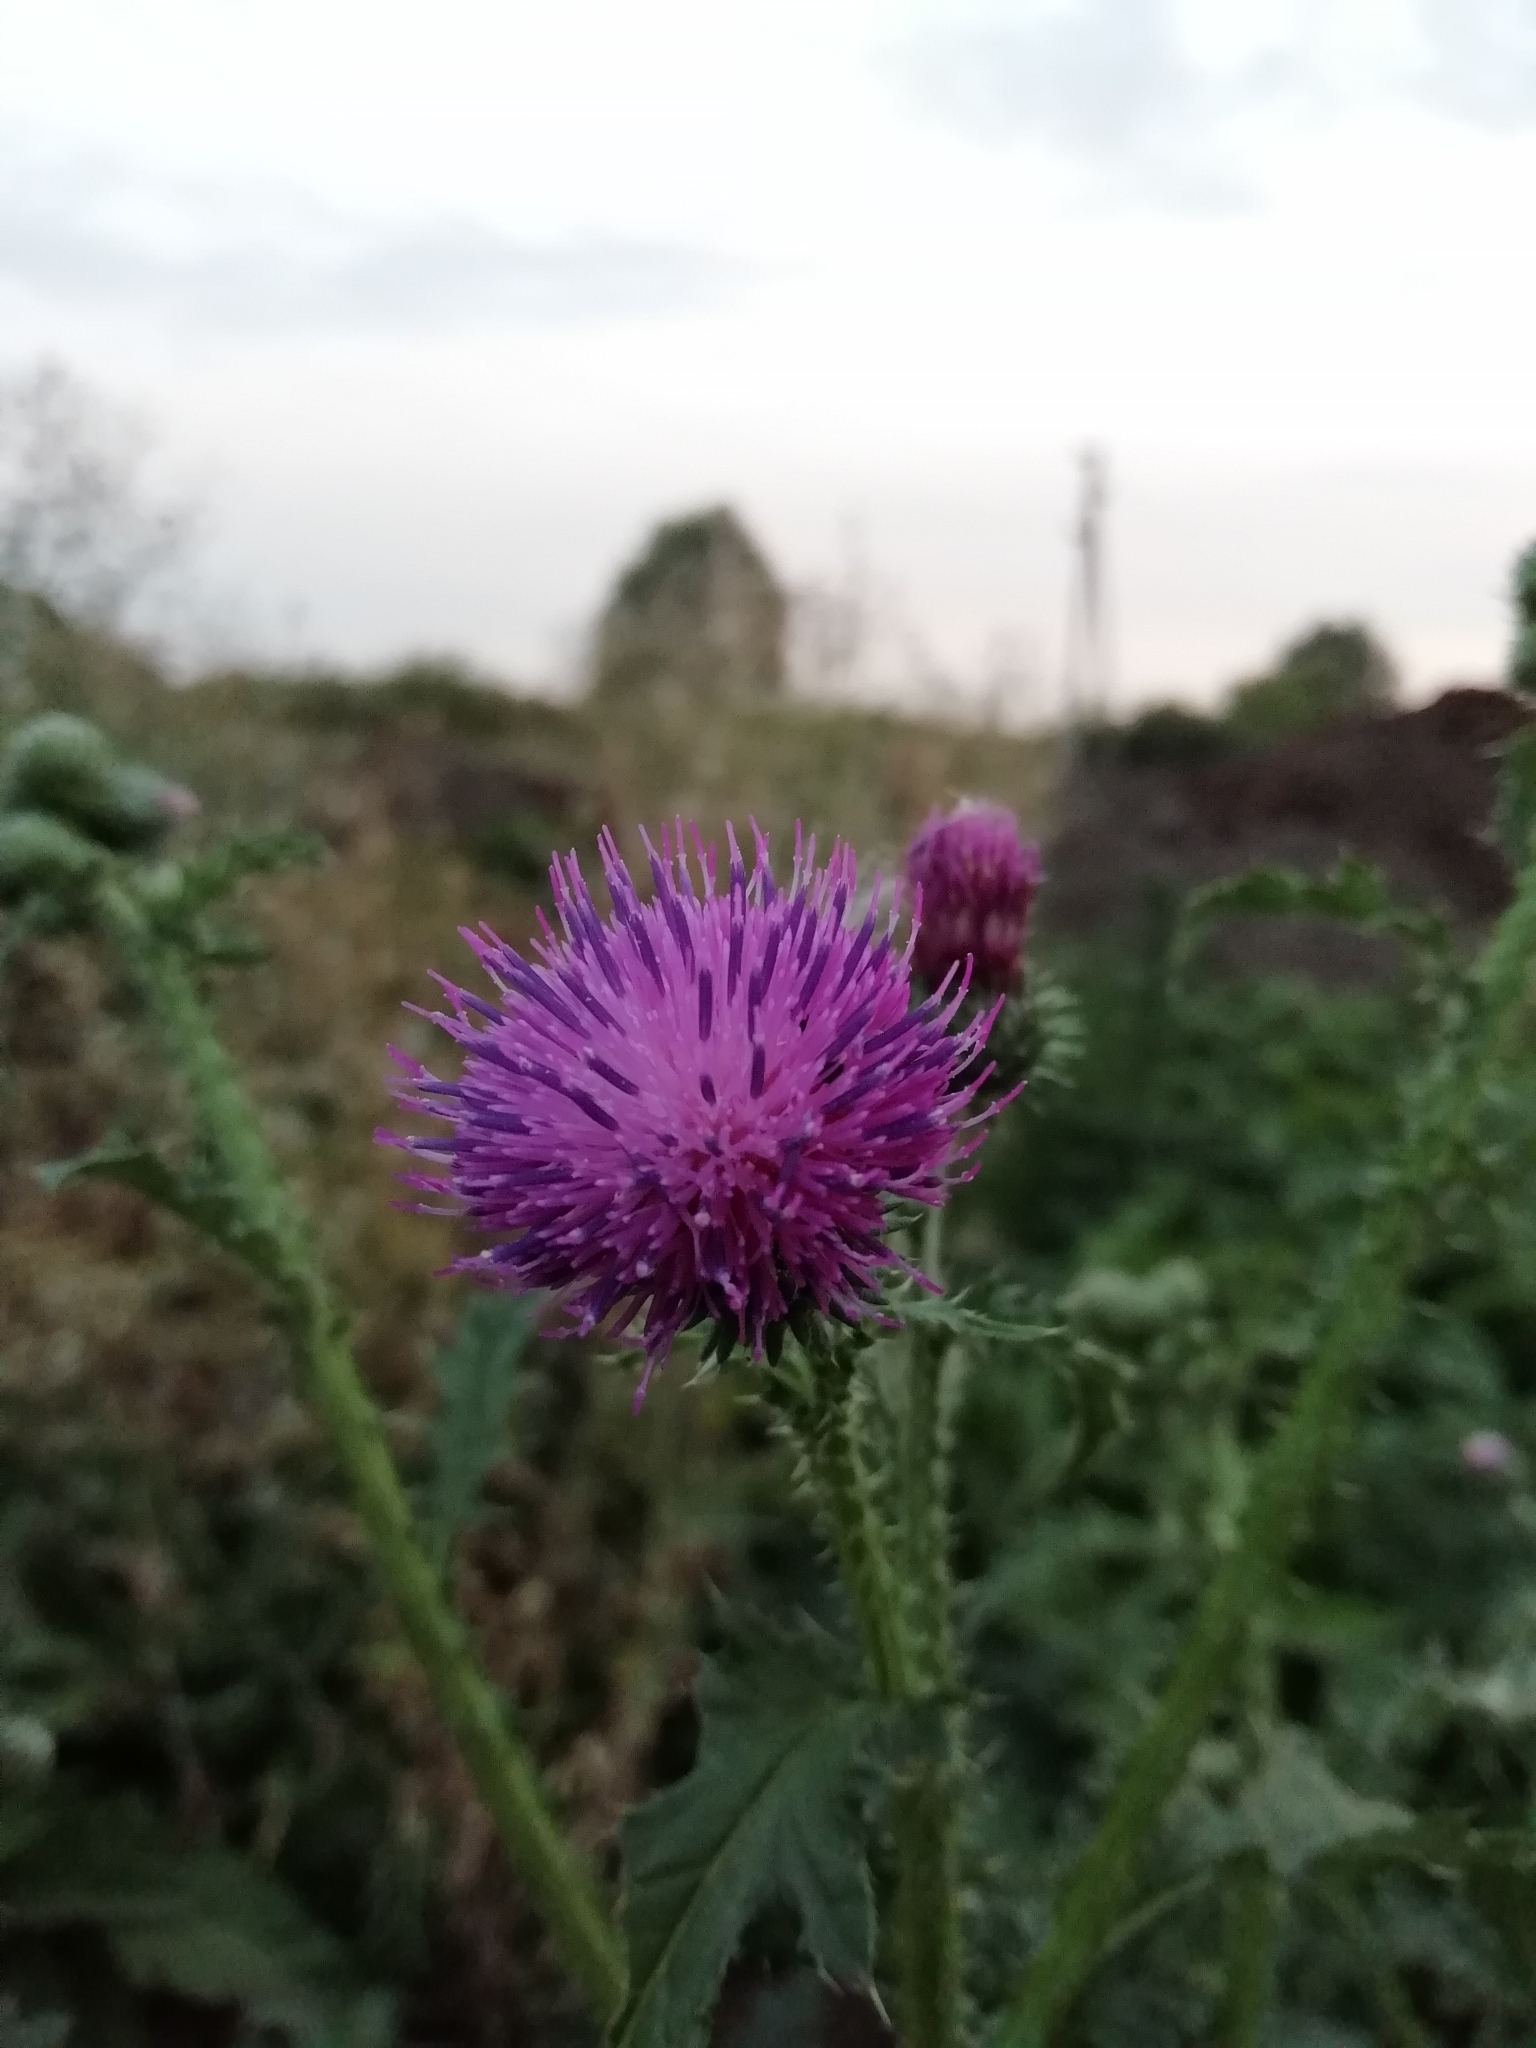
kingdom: Plantae
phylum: Tracheophyta
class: Magnoliopsida
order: Asterales
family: Asteraceae
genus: Carduus
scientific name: Carduus crispus
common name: Welted thistle
